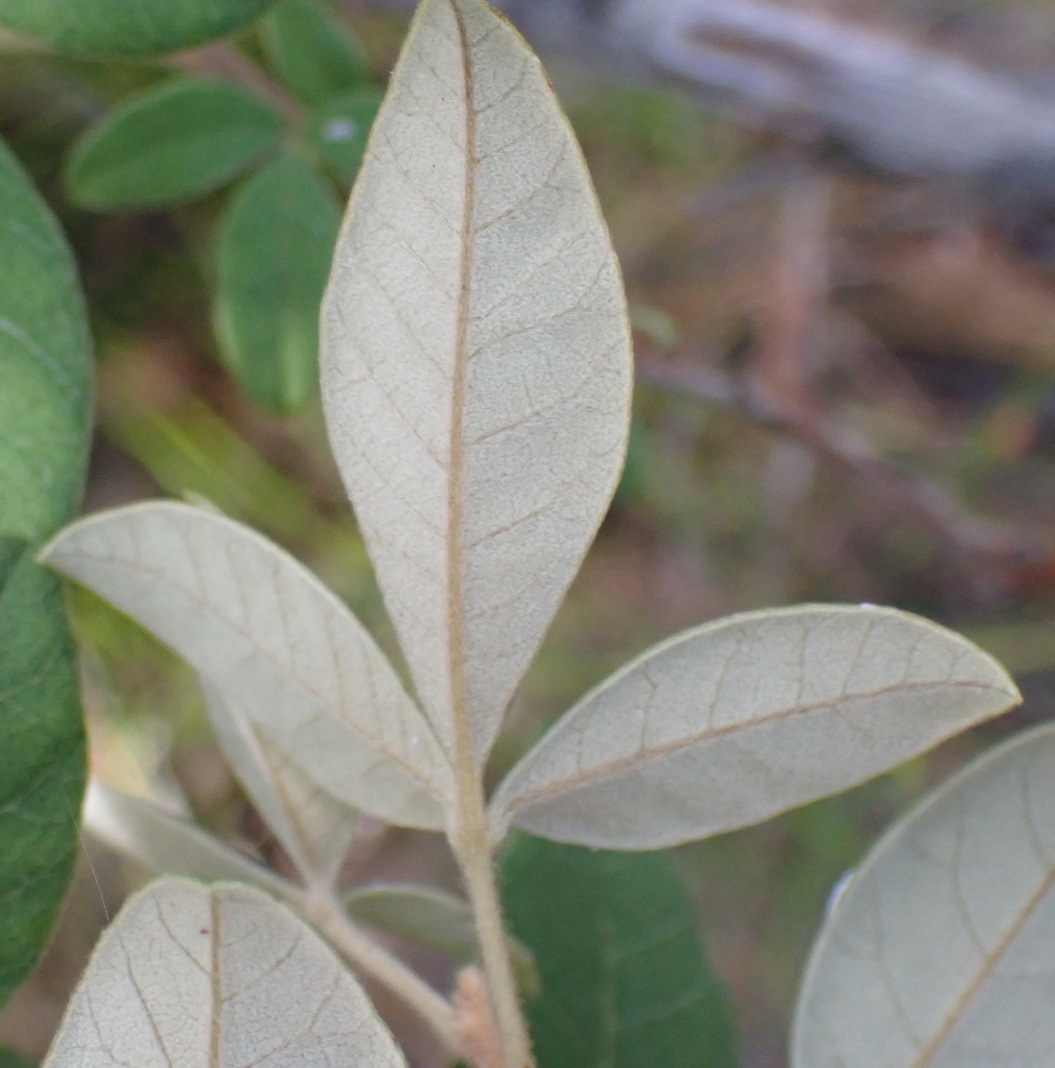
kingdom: Plantae
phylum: Tracheophyta
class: Magnoliopsida
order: Sapindales
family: Anacardiaceae
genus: Searsia
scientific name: Searsia tomentosa
